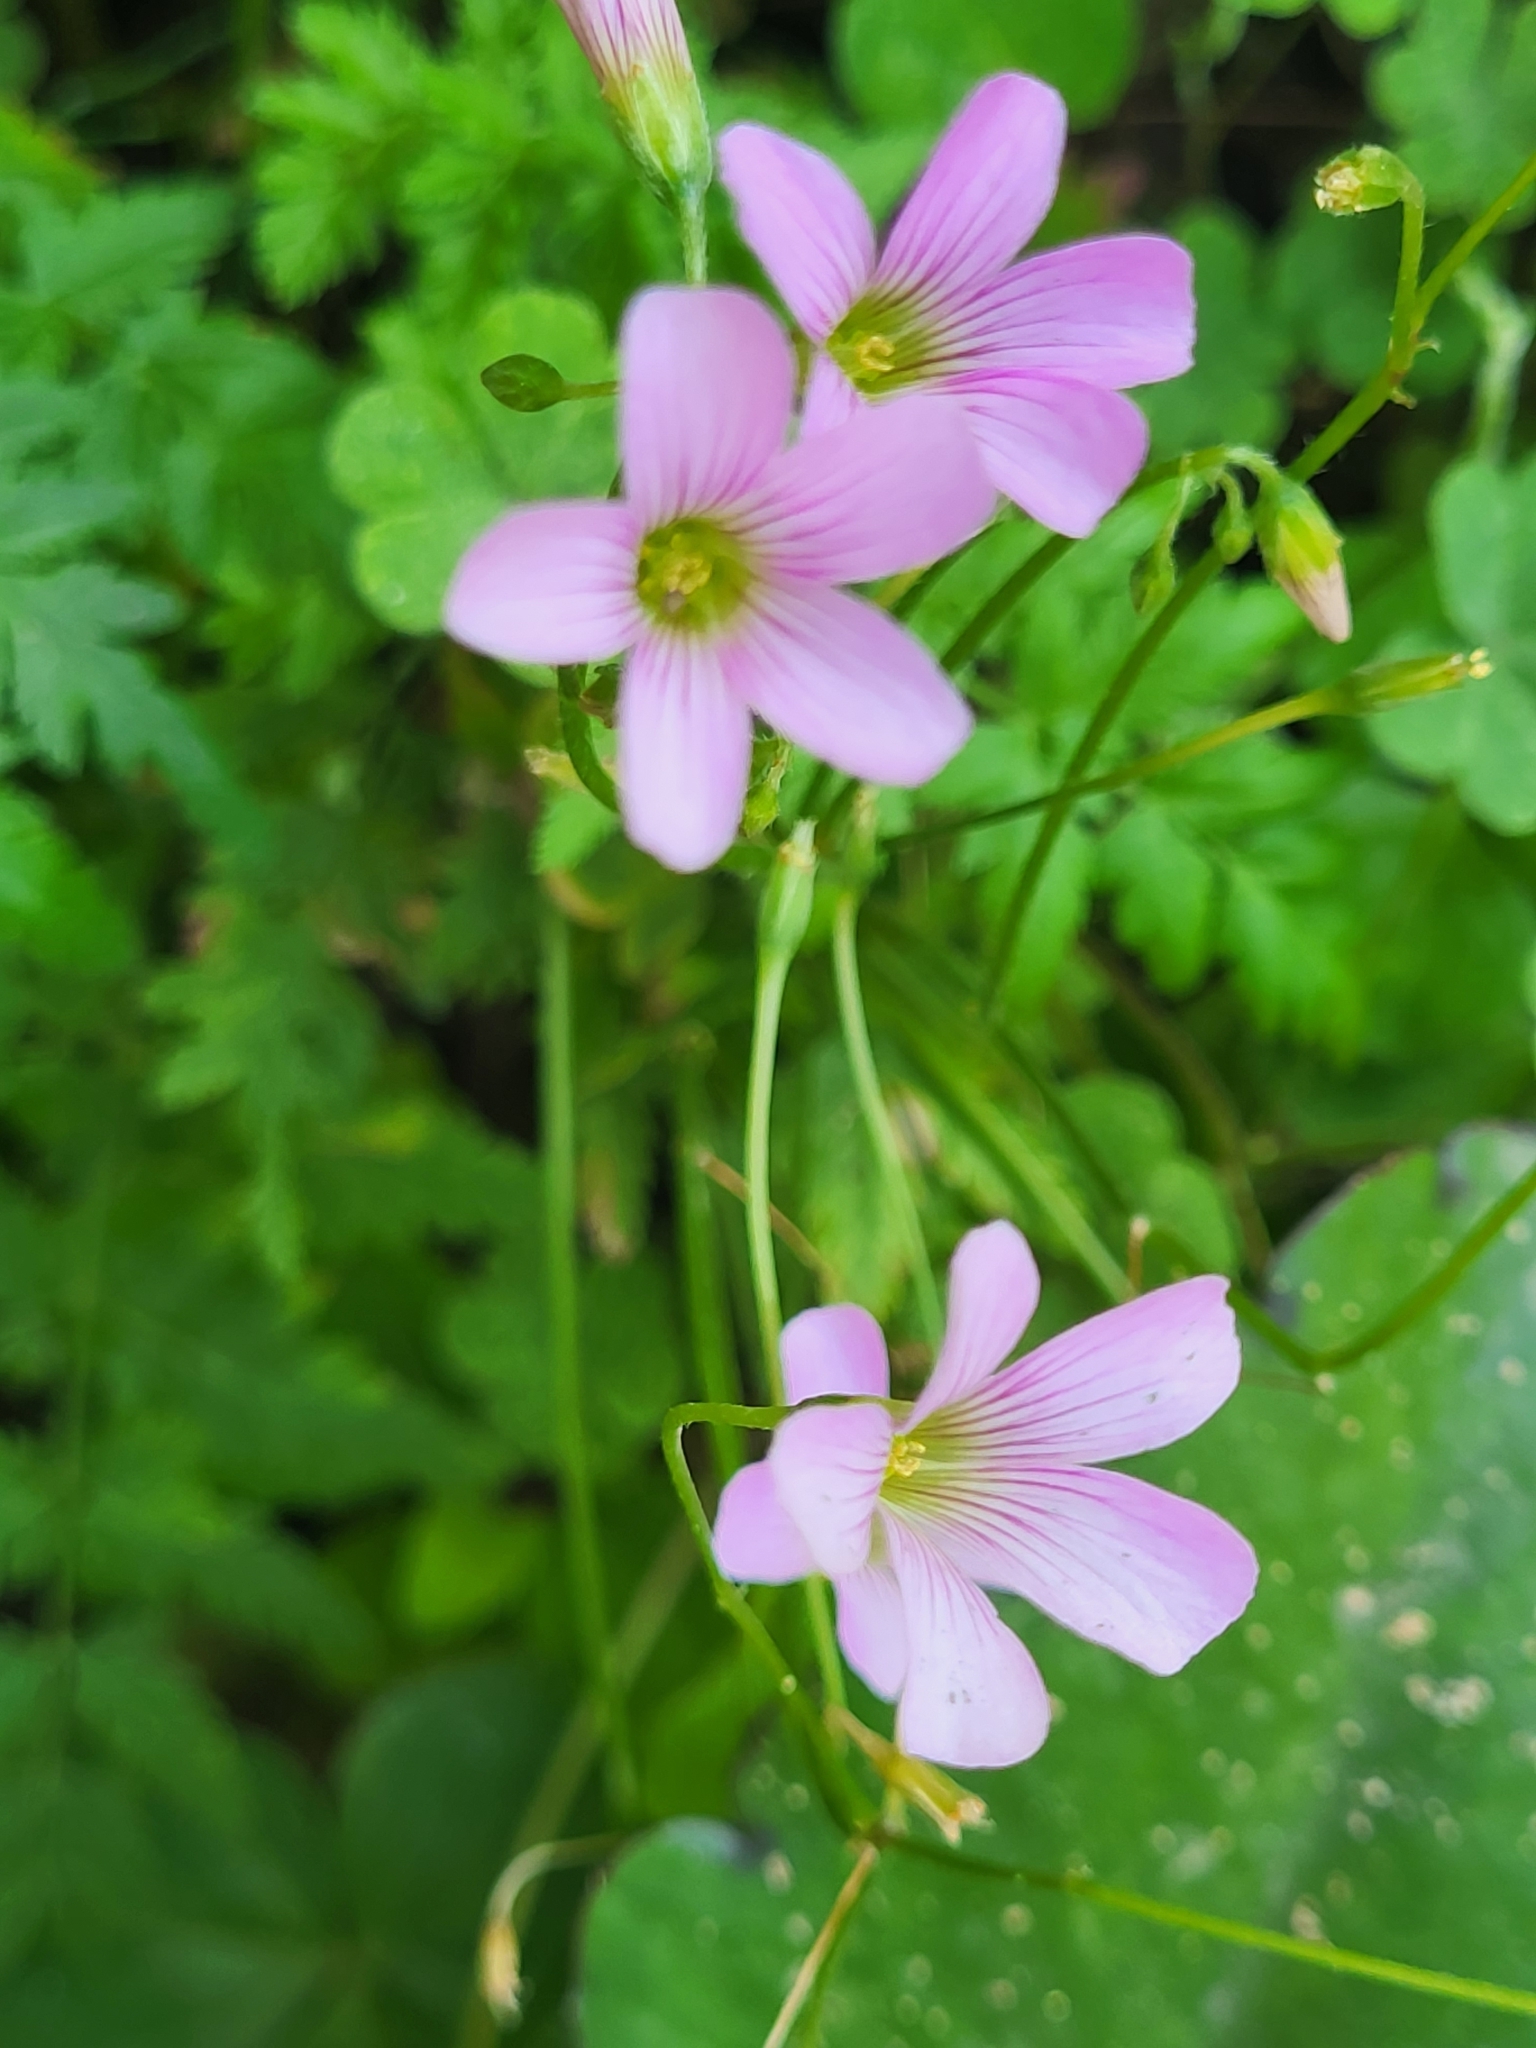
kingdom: Plantae
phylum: Tracheophyta
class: Magnoliopsida
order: Oxalidales
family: Oxalidaceae
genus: Oxalis
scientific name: Oxalis debilis
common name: Large-flowered pink-sorrel
